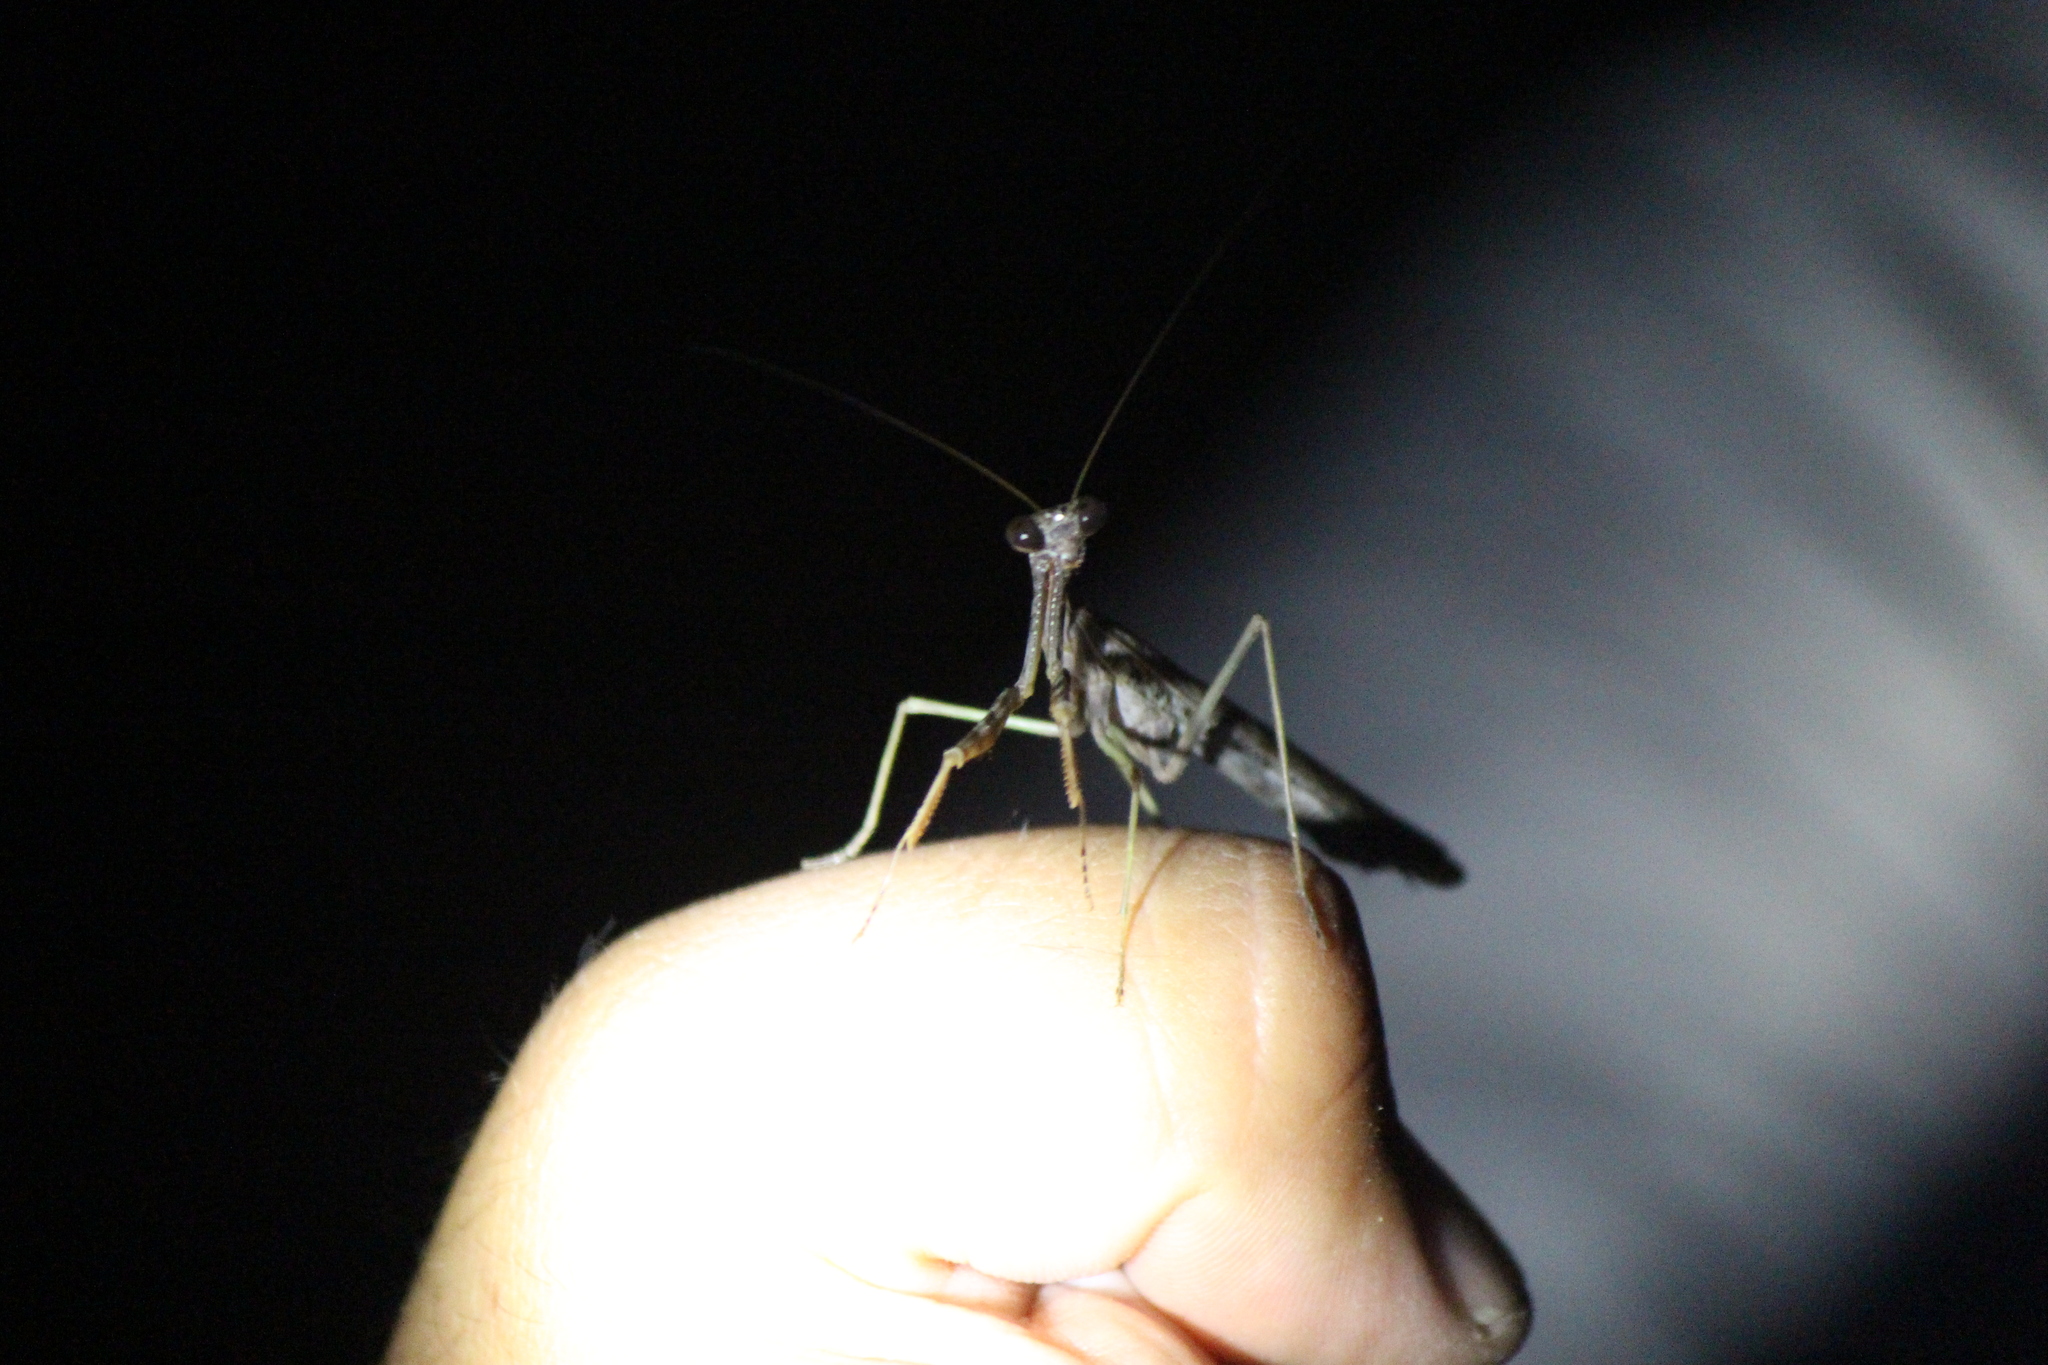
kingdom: Animalia
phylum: Arthropoda
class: Insecta
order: Mantodea
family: Mantidae
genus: Stagmomantis
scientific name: Stagmomantis californica
